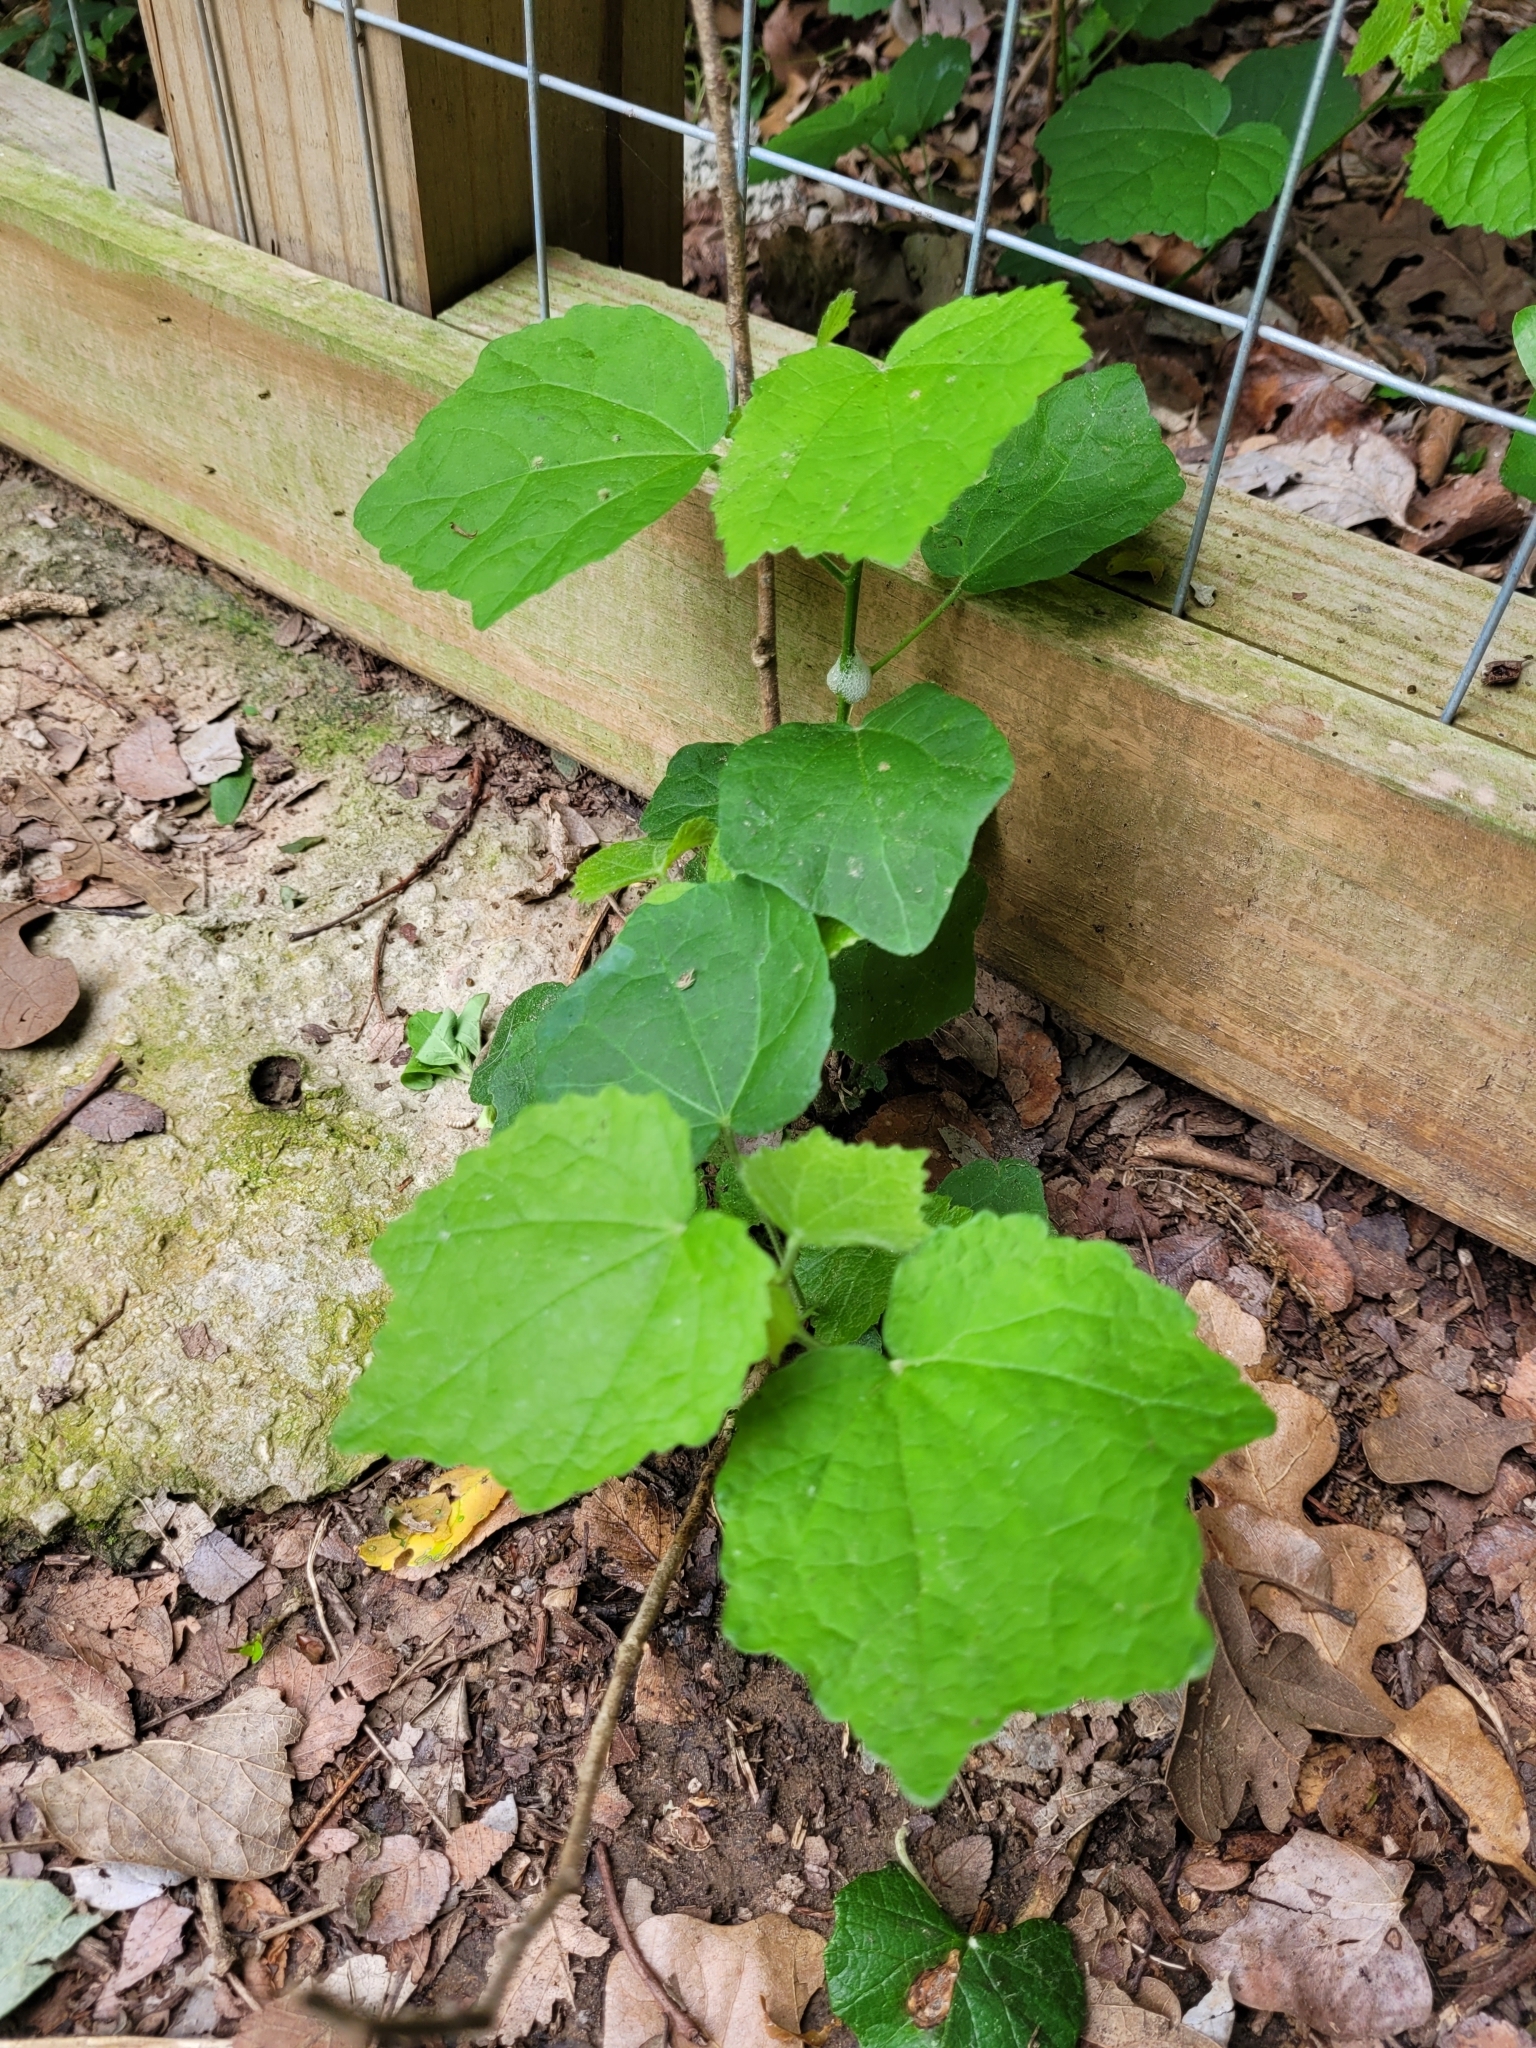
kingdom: Plantae
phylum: Tracheophyta
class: Magnoliopsida
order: Malvales
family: Malvaceae
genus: Malvaviscus
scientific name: Malvaviscus arboreus
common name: Wax mallow
